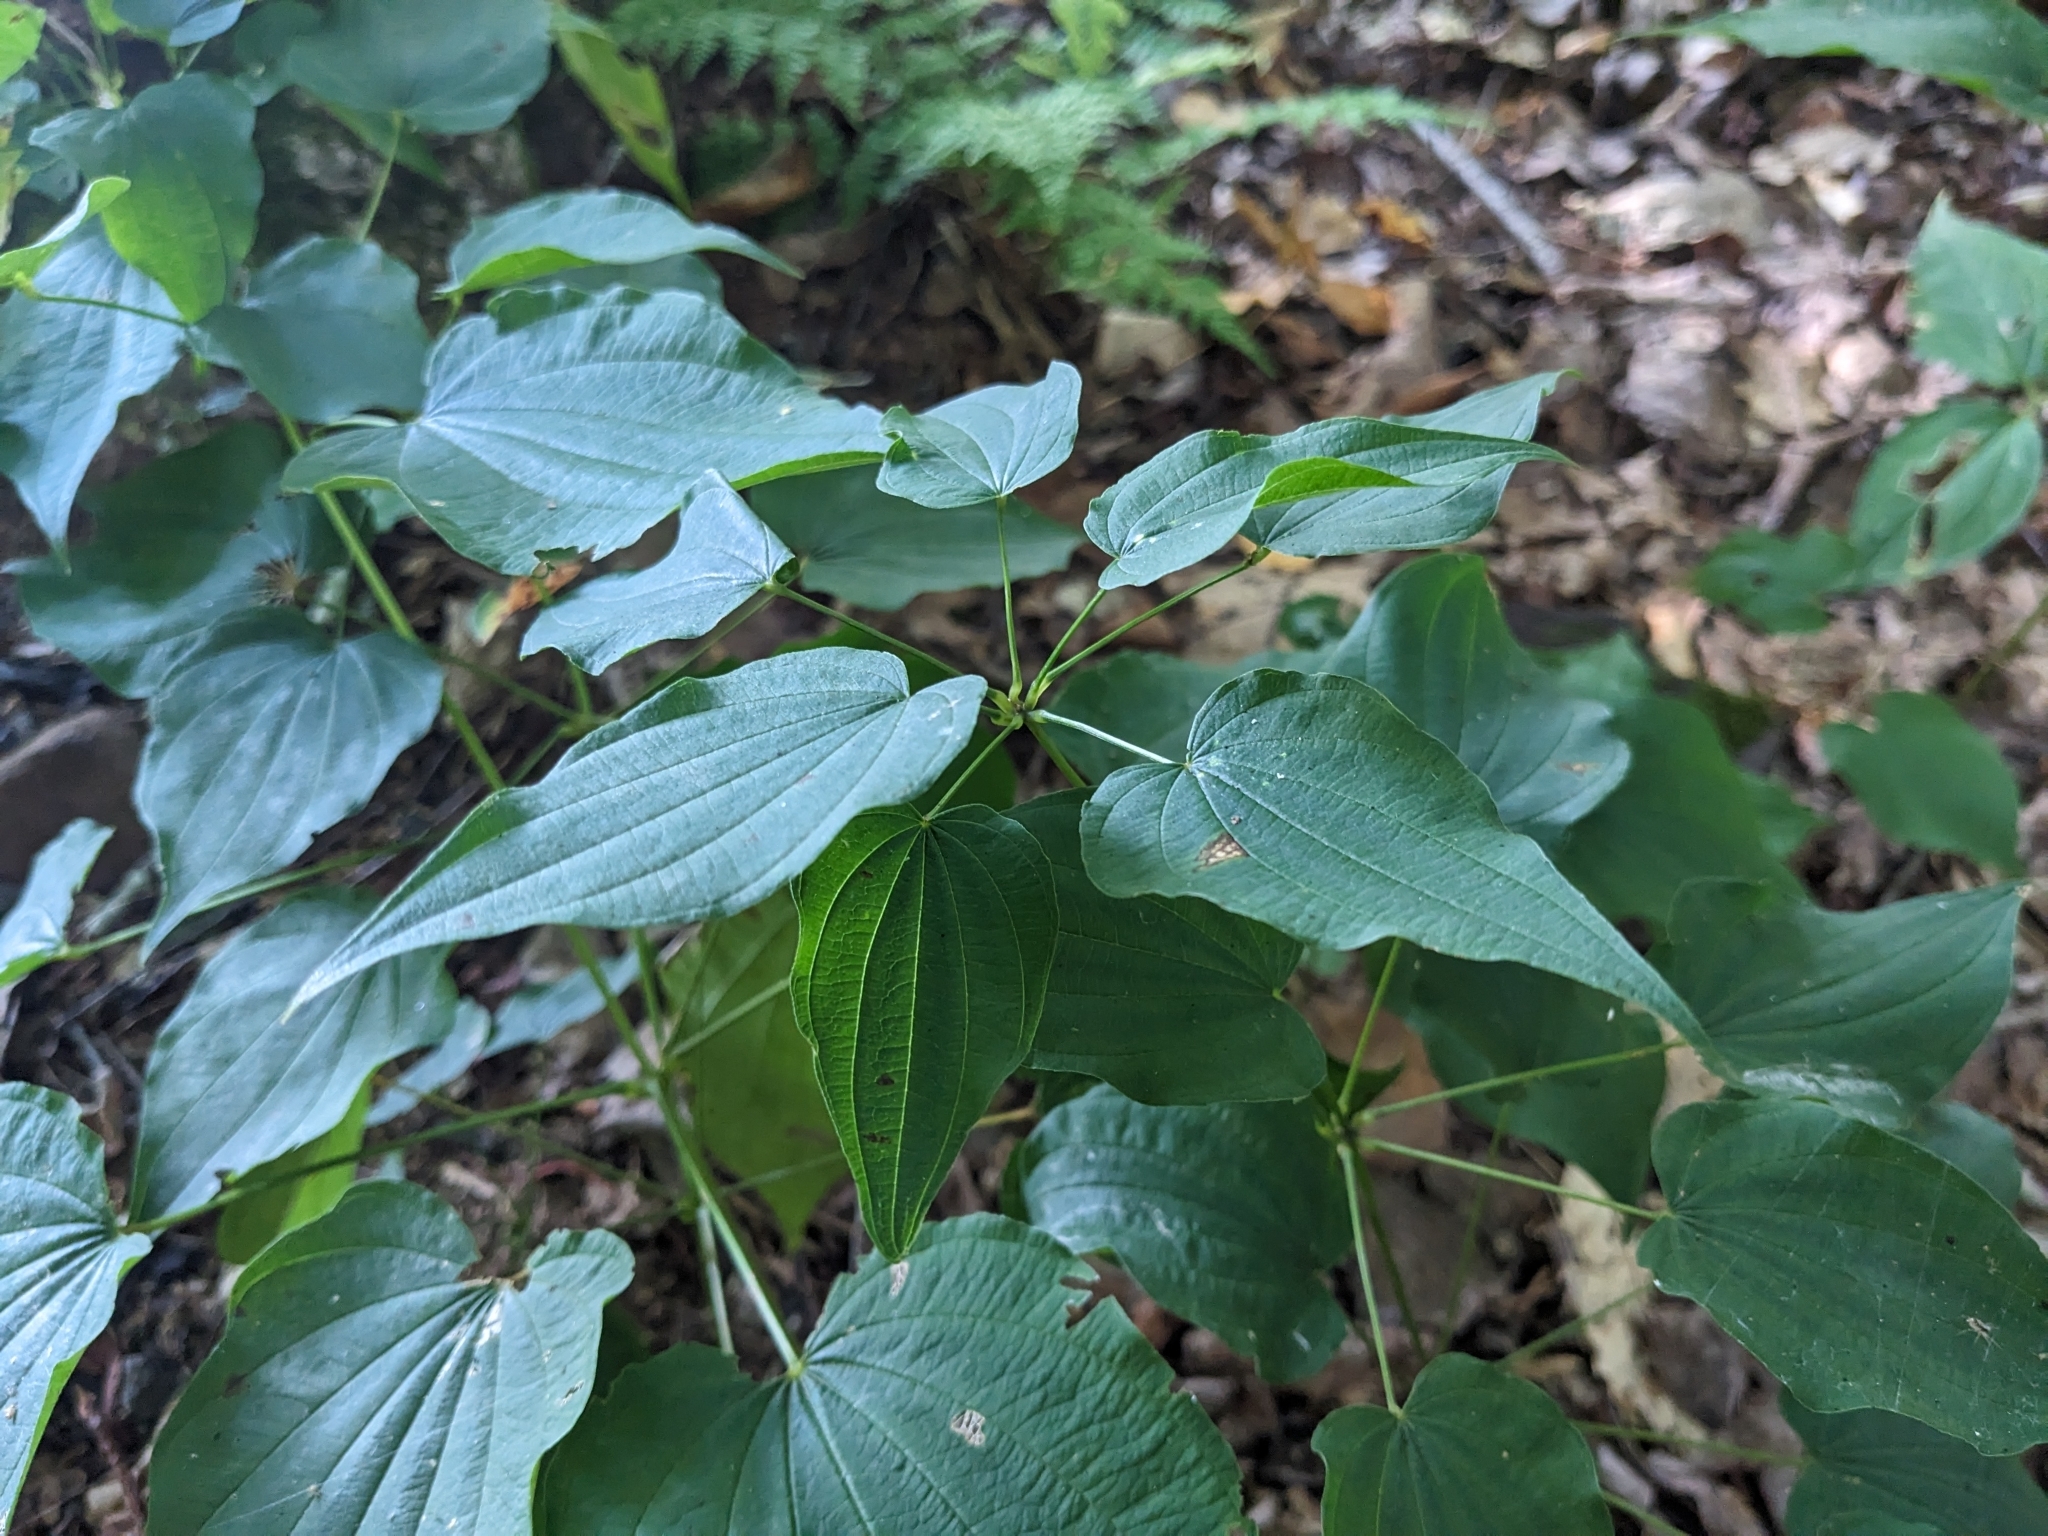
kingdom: Plantae
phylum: Tracheophyta
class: Liliopsida
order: Dioscoreales
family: Dioscoreaceae
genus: Dioscorea
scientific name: Dioscorea villosa
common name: Wild yam
